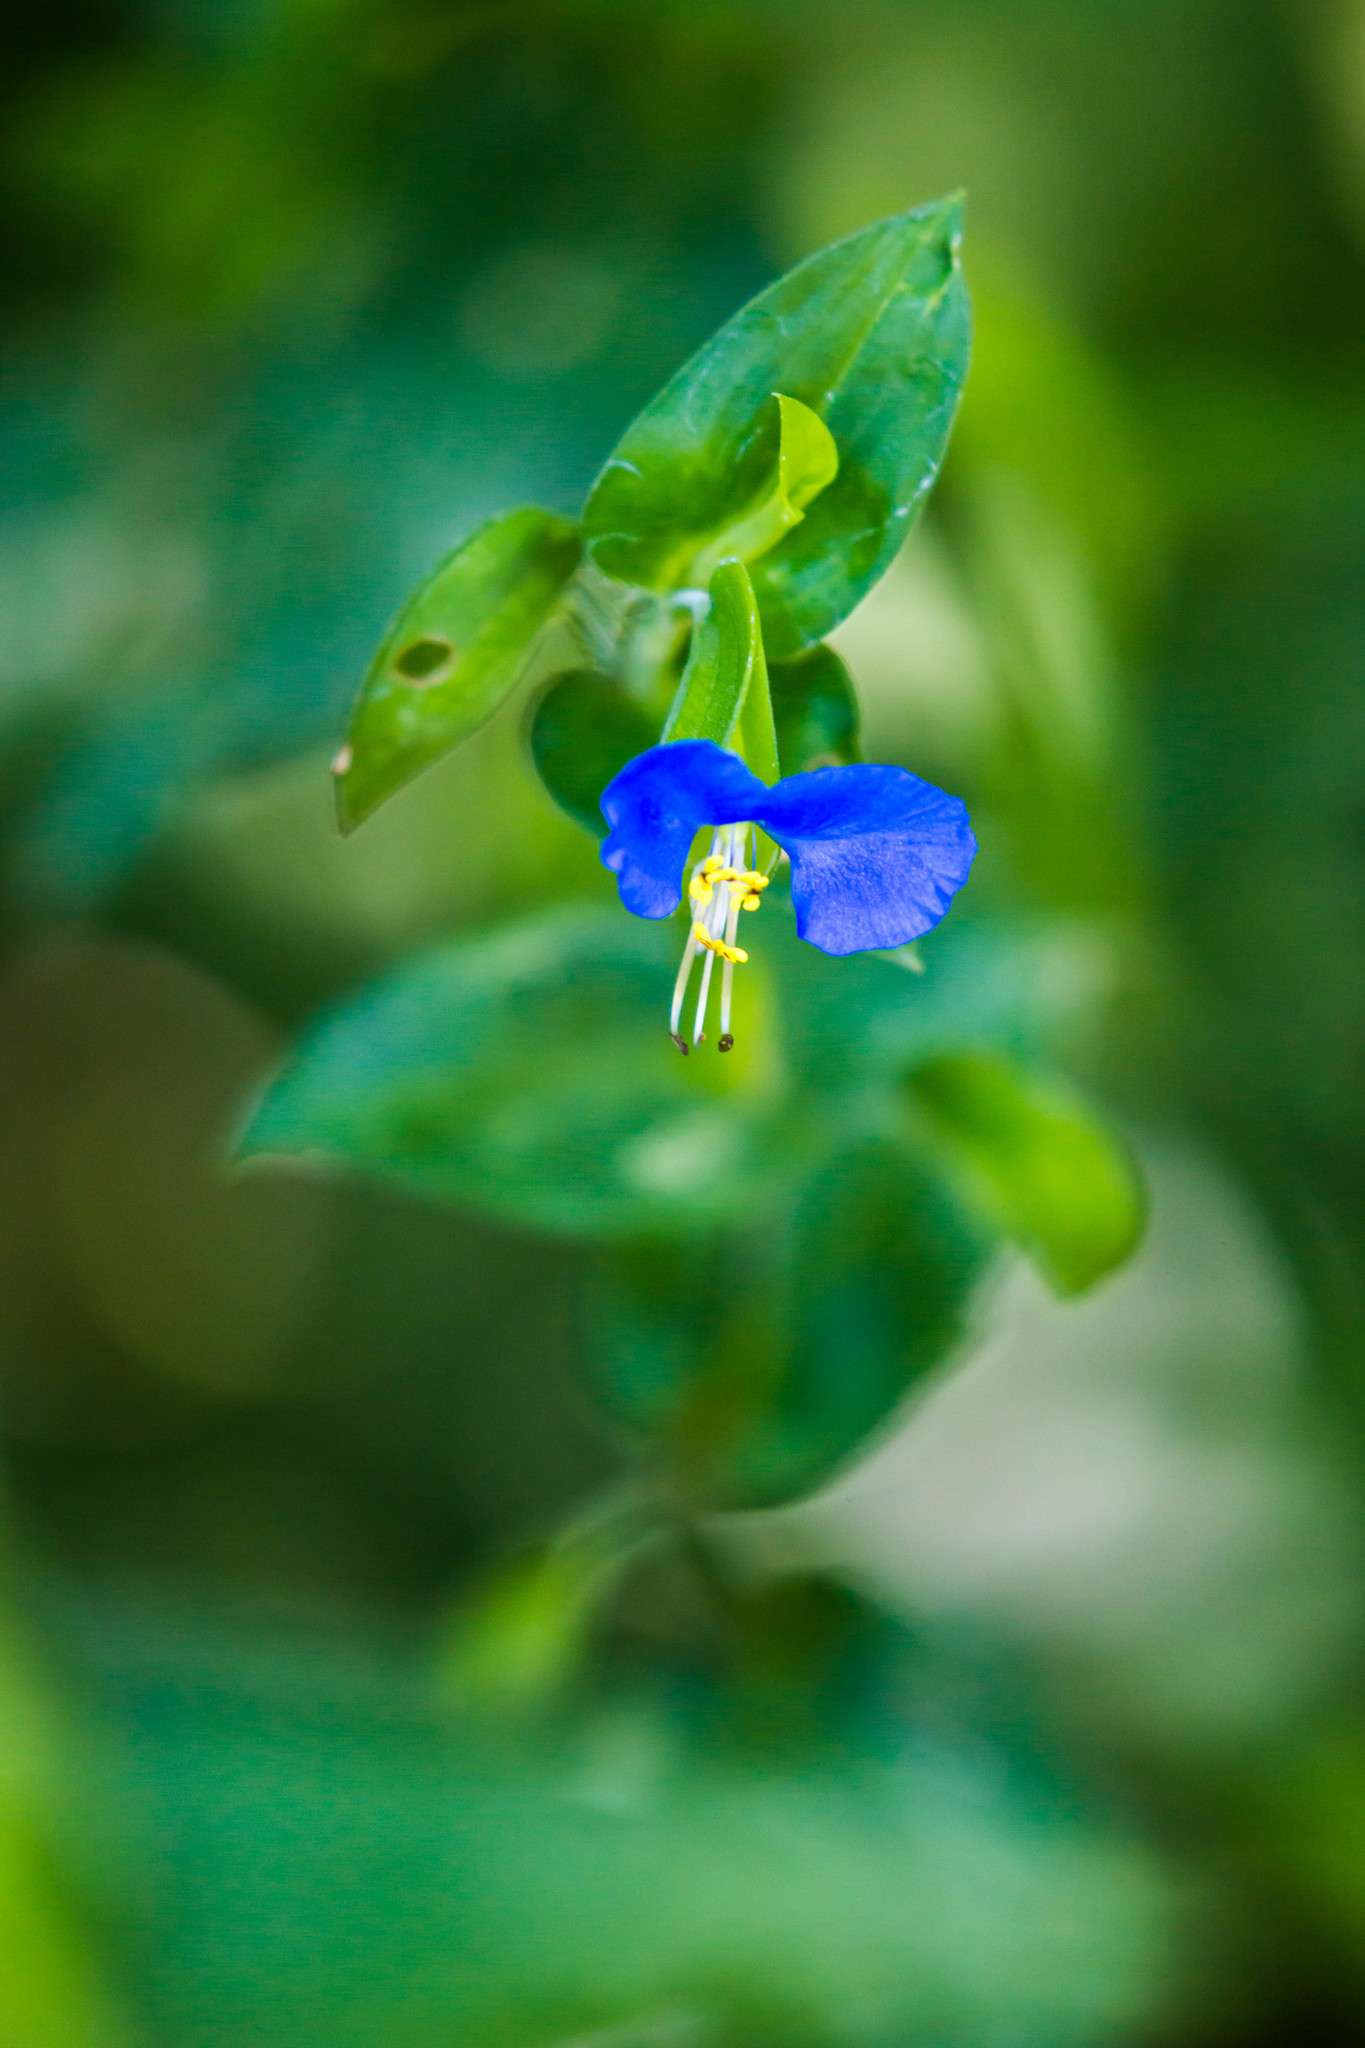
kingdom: Plantae
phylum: Tracheophyta
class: Liliopsida
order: Commelinales
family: Commelinaceae
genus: Commelina
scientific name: Commelina communis
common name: Asiatic dayflower
